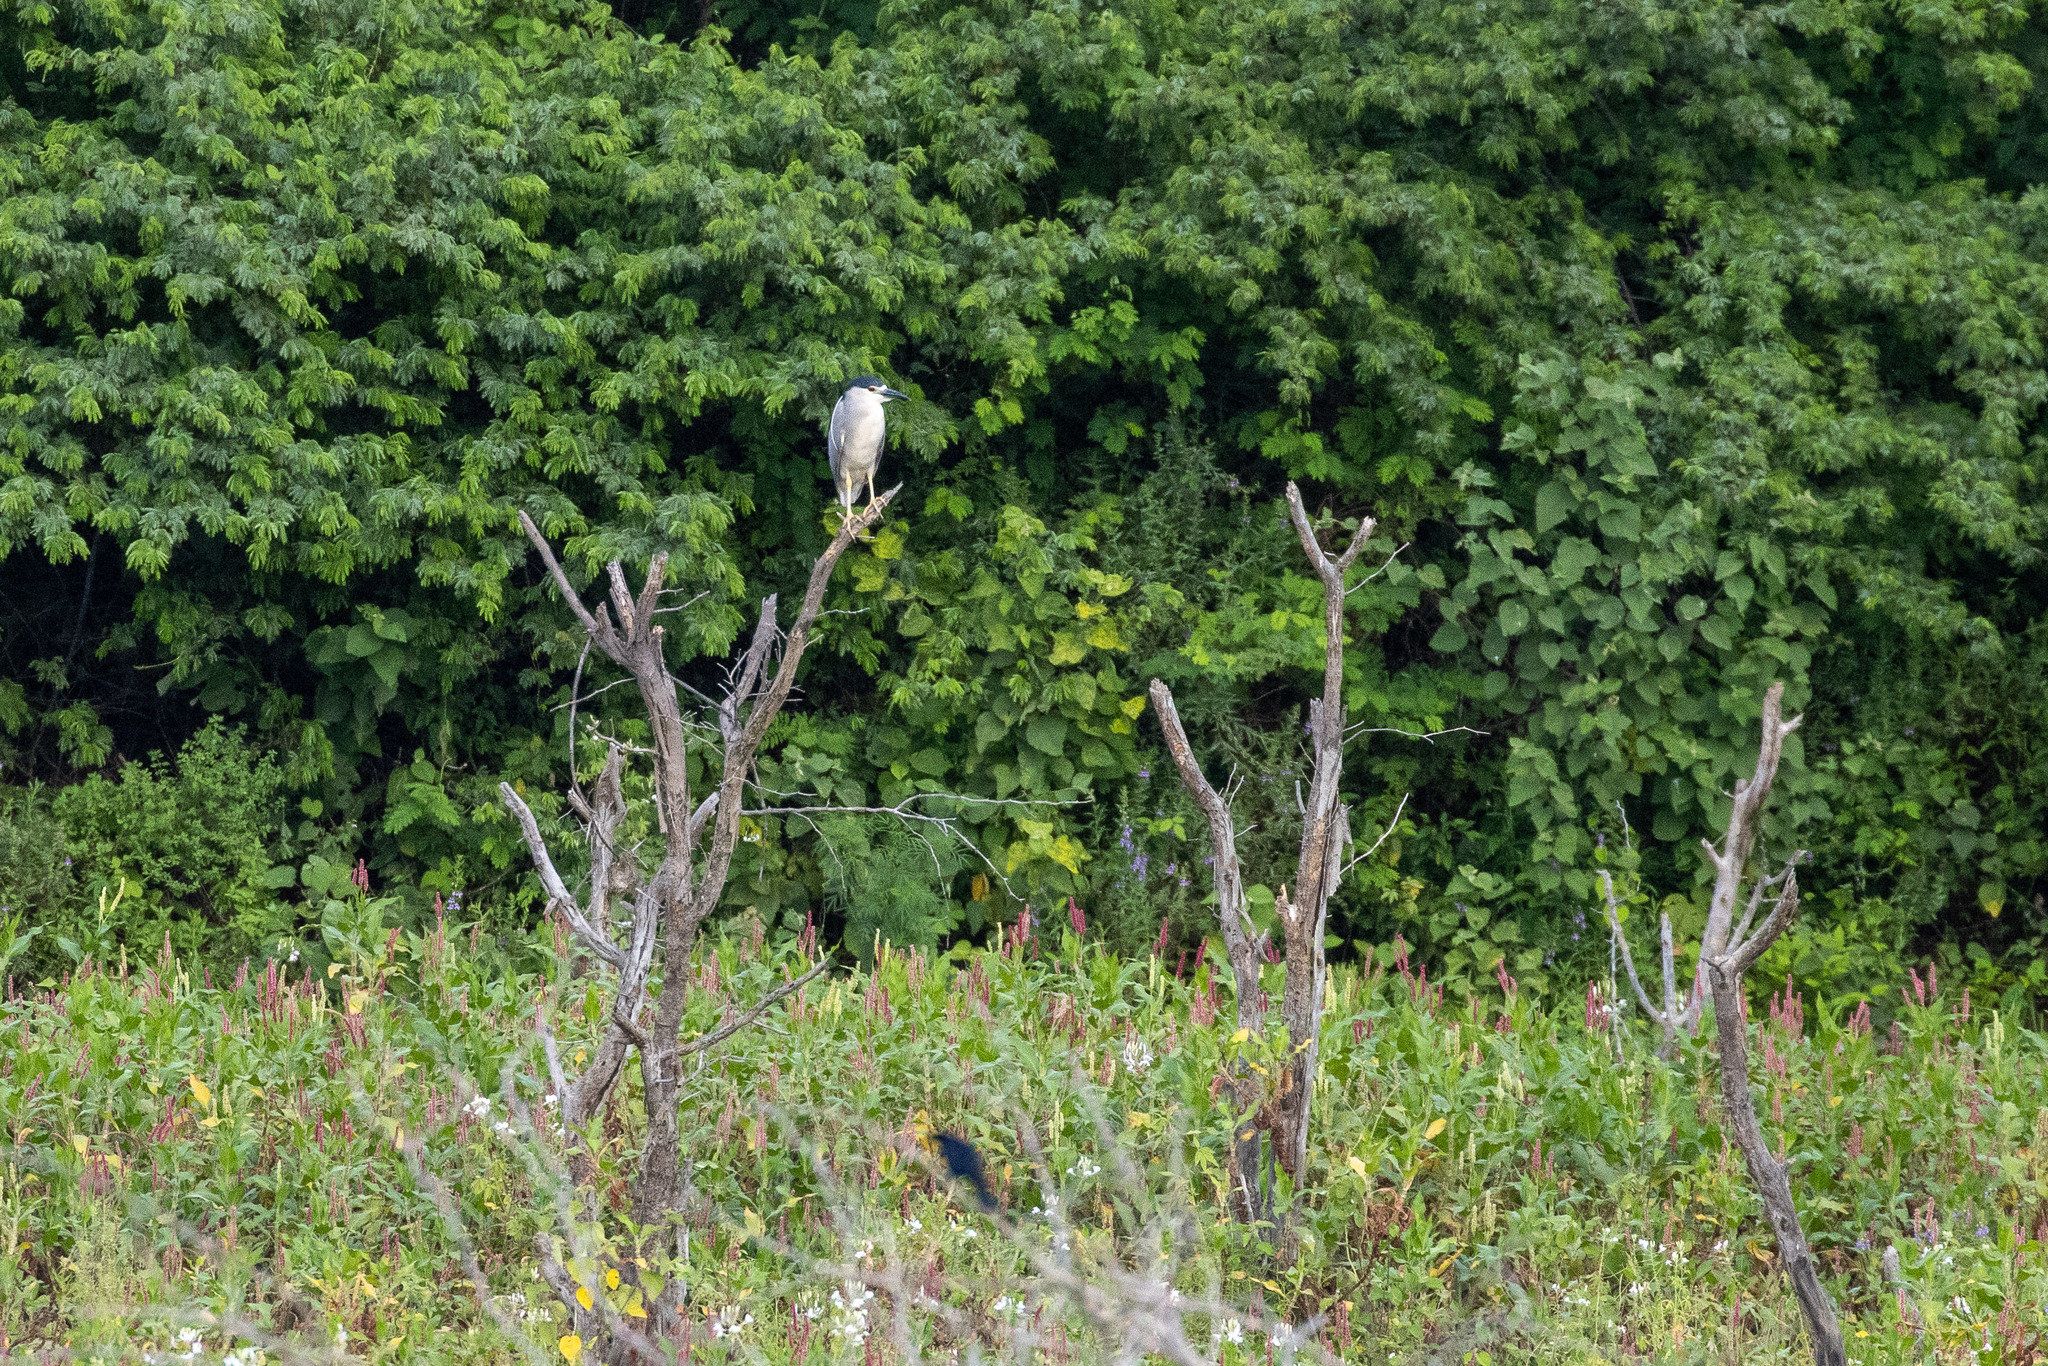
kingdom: Animalia
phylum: Chordata
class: Aves
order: Pelecaniformes
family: Ardeidae
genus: Nycticorax
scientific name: Nycticorax nycticorax
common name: Black-crowned night heron
